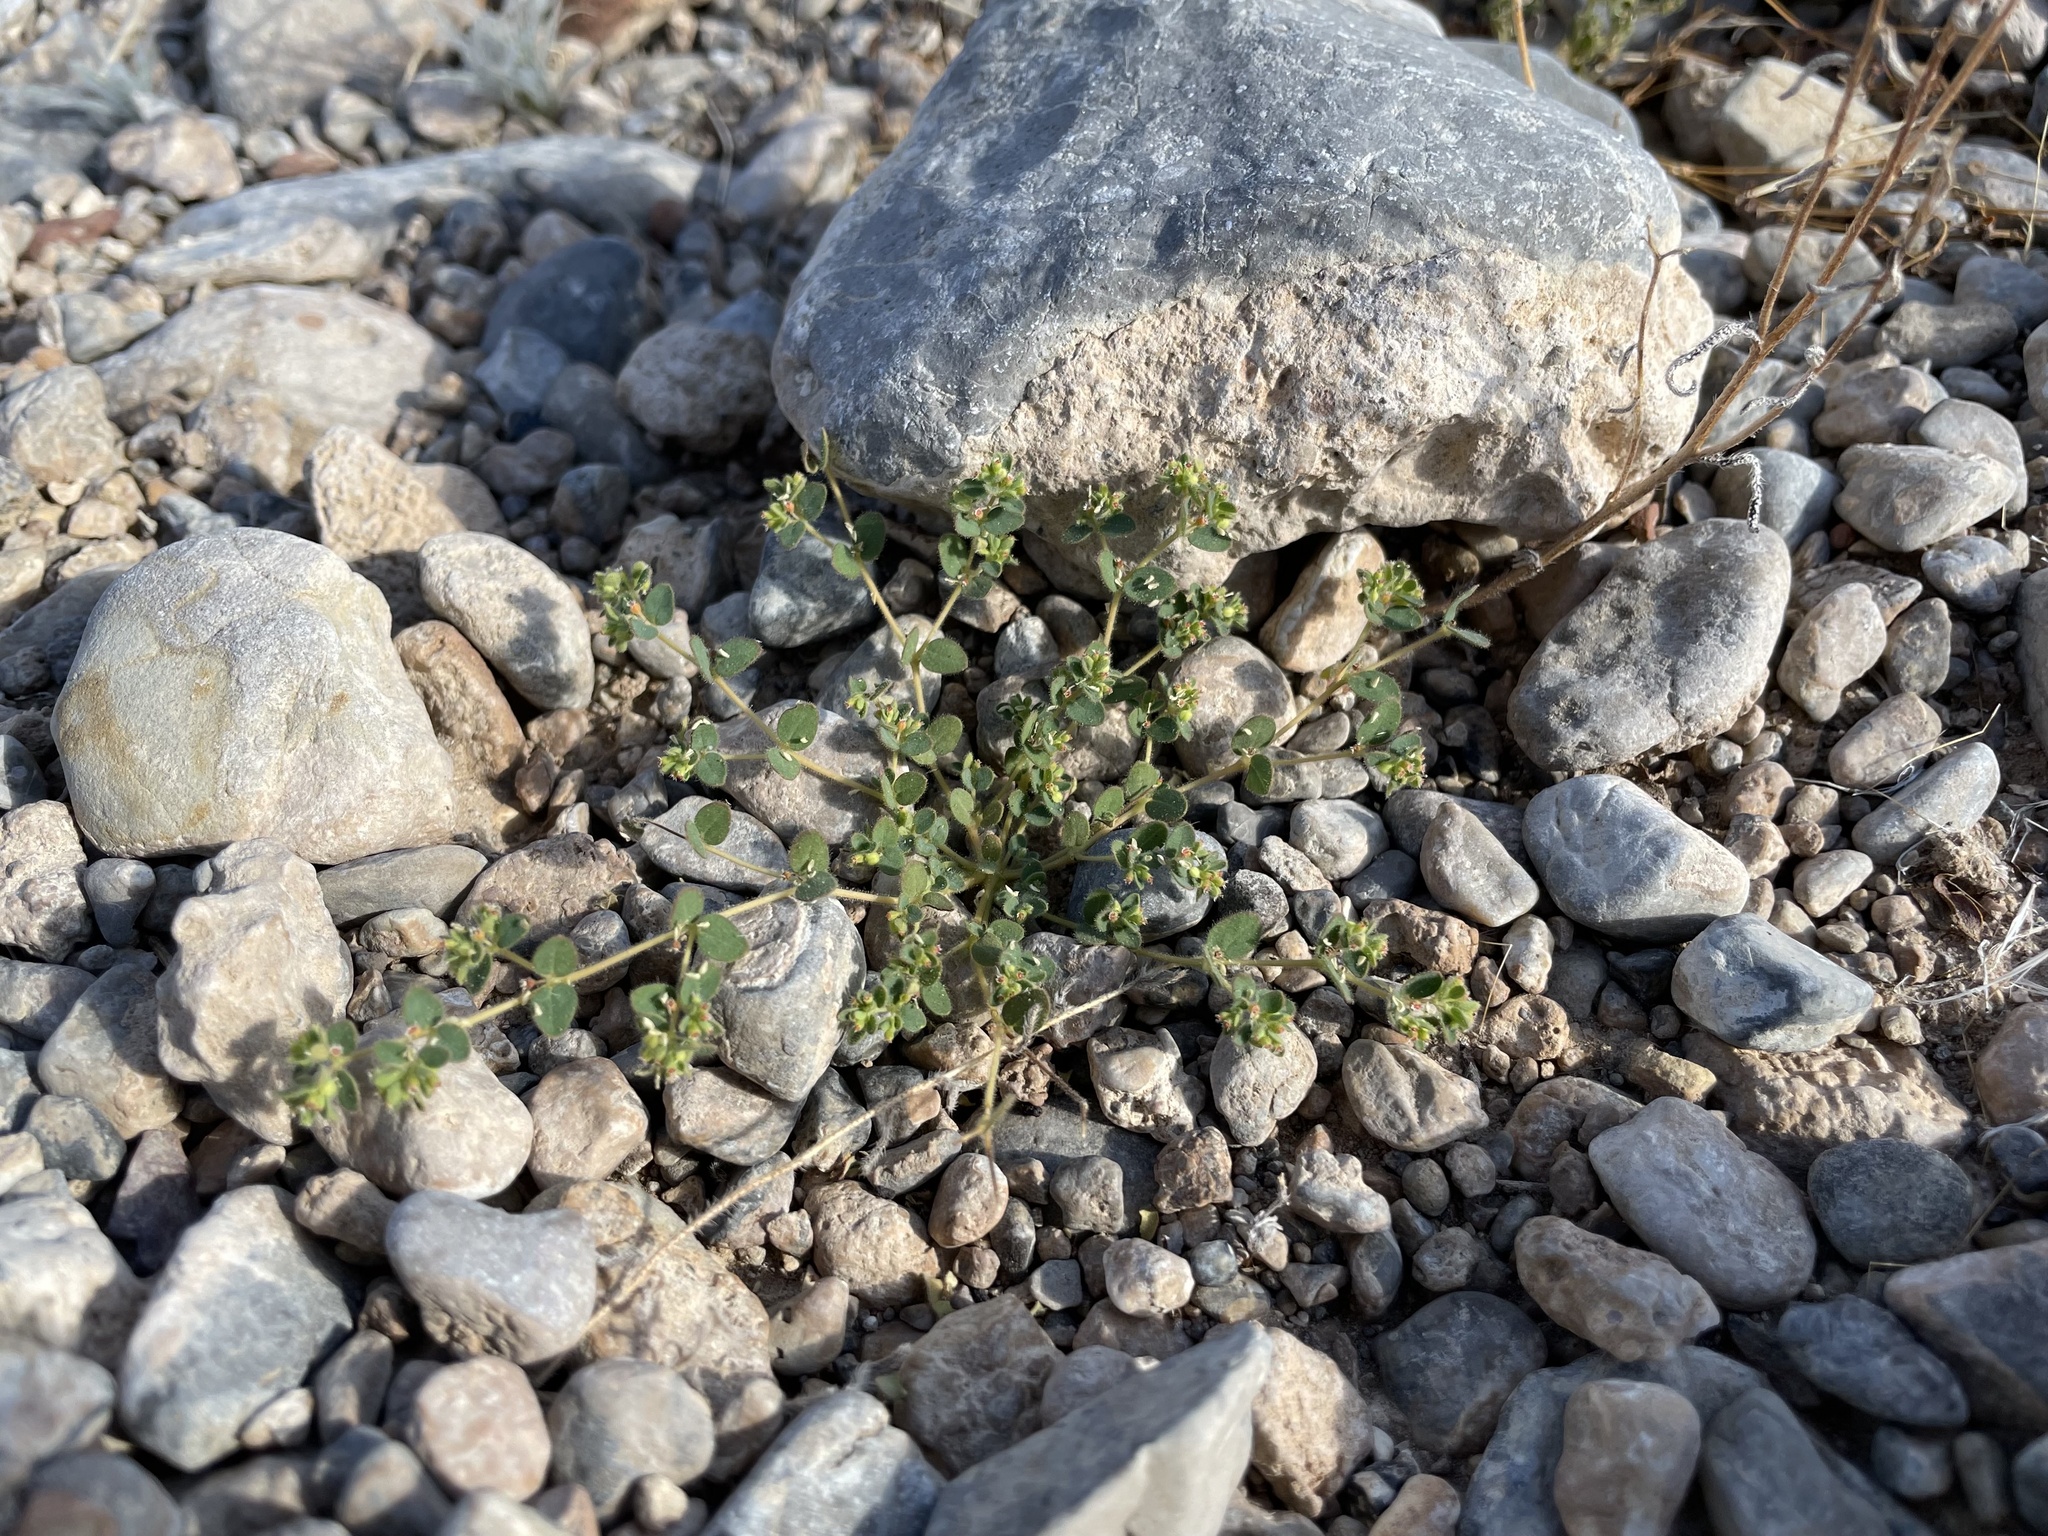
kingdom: Plantae
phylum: Tracheophyta
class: Magnoliopsida
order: Malpighiales
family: Euphorbiaceae
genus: Euphorbia
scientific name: Euphorbia setiloba
